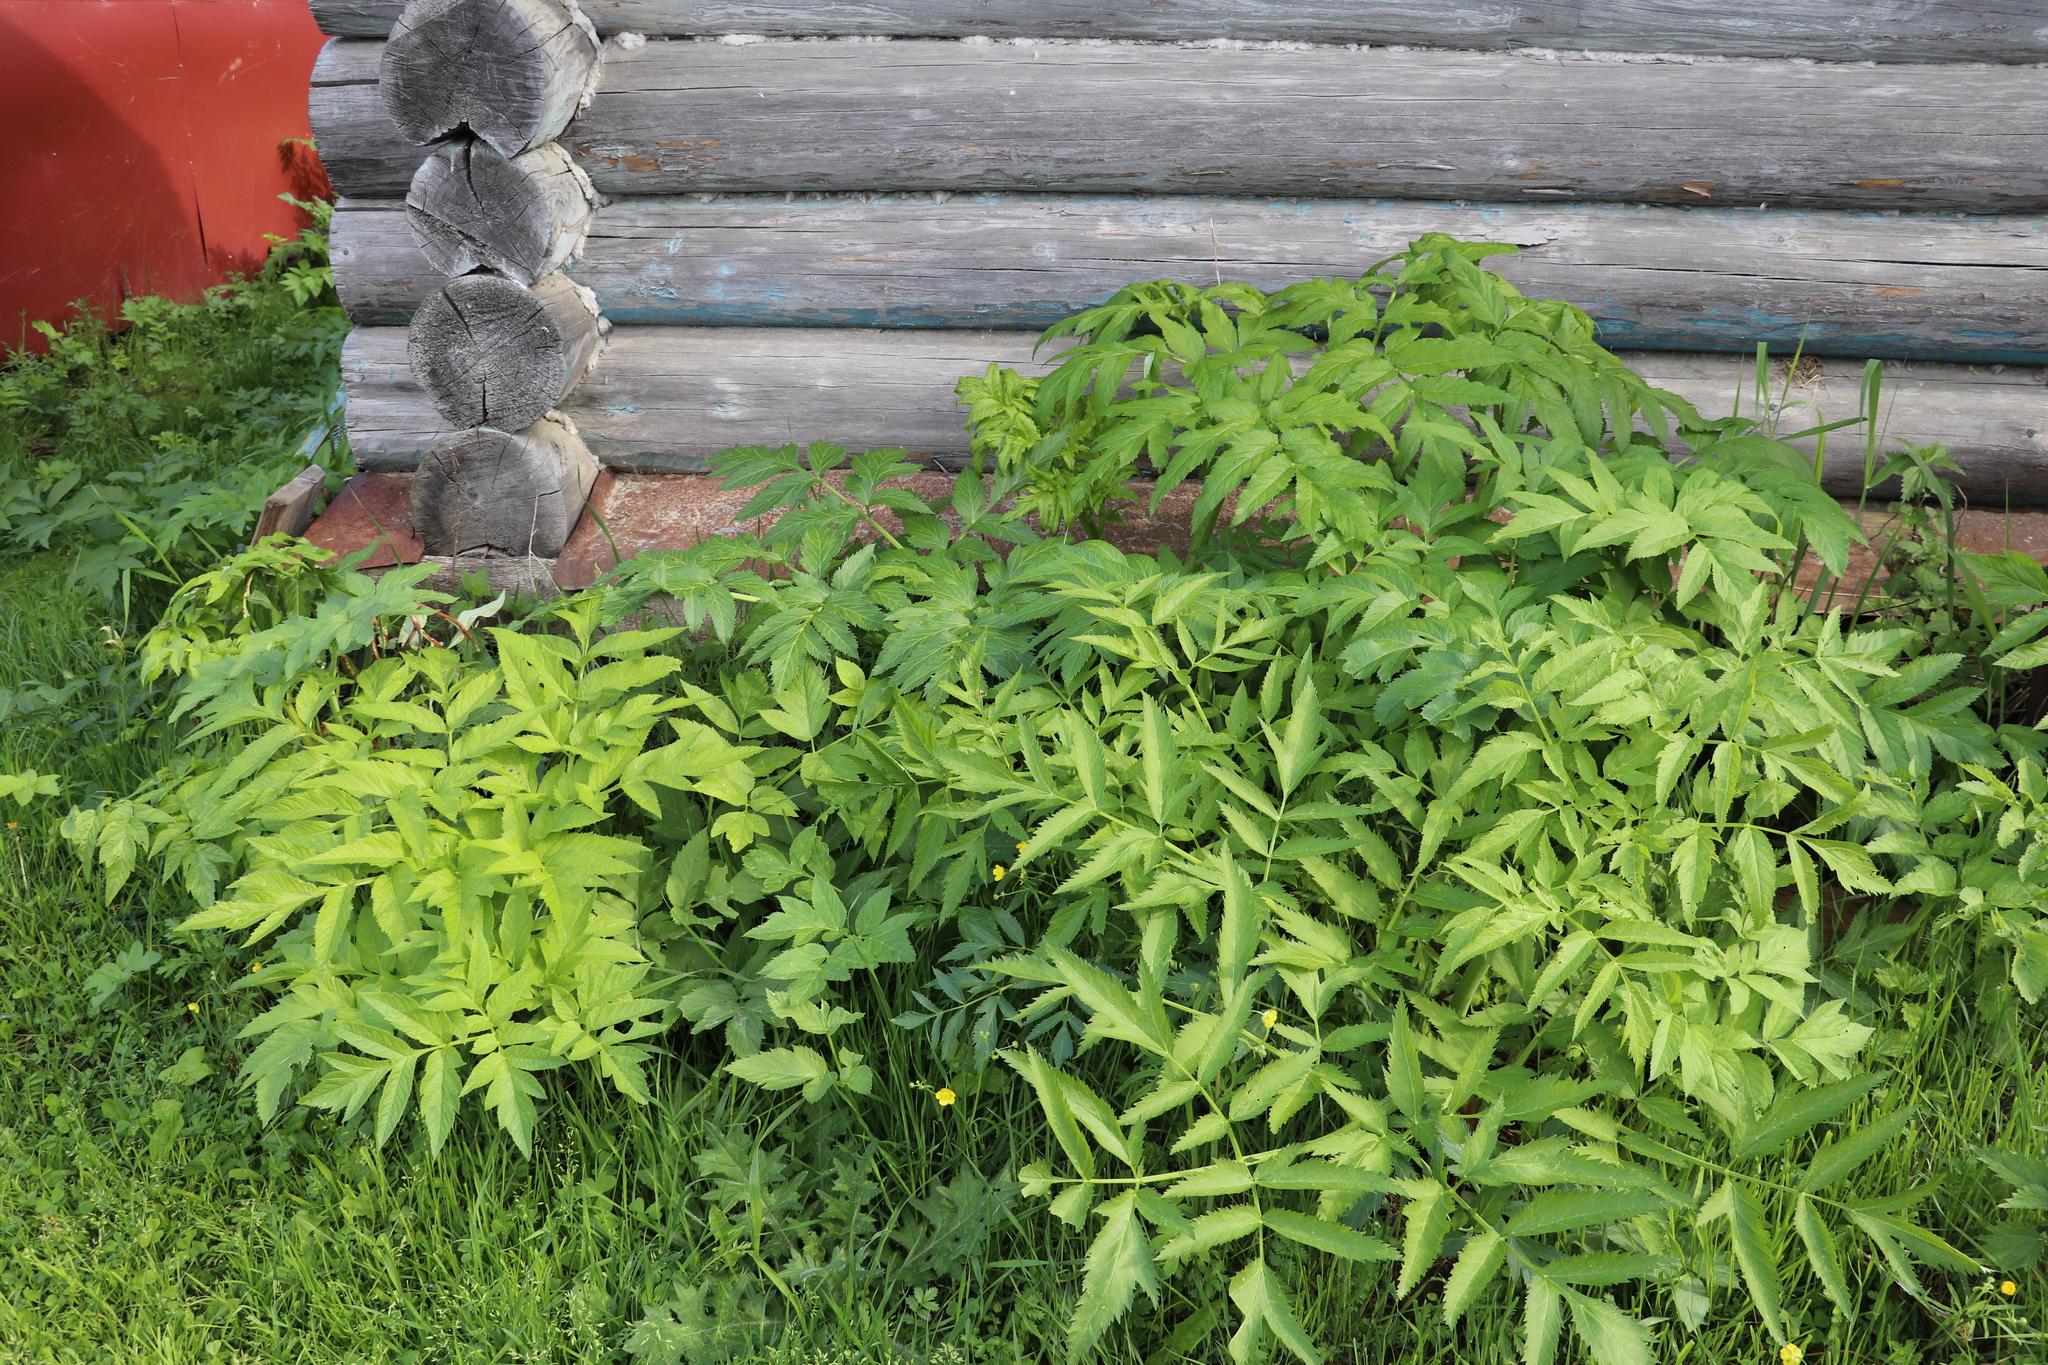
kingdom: Plantae
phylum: Tracheophyta
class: Magnoliopsida
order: Apiales
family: Apiaceae
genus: Angelica
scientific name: Angelica decurrens
